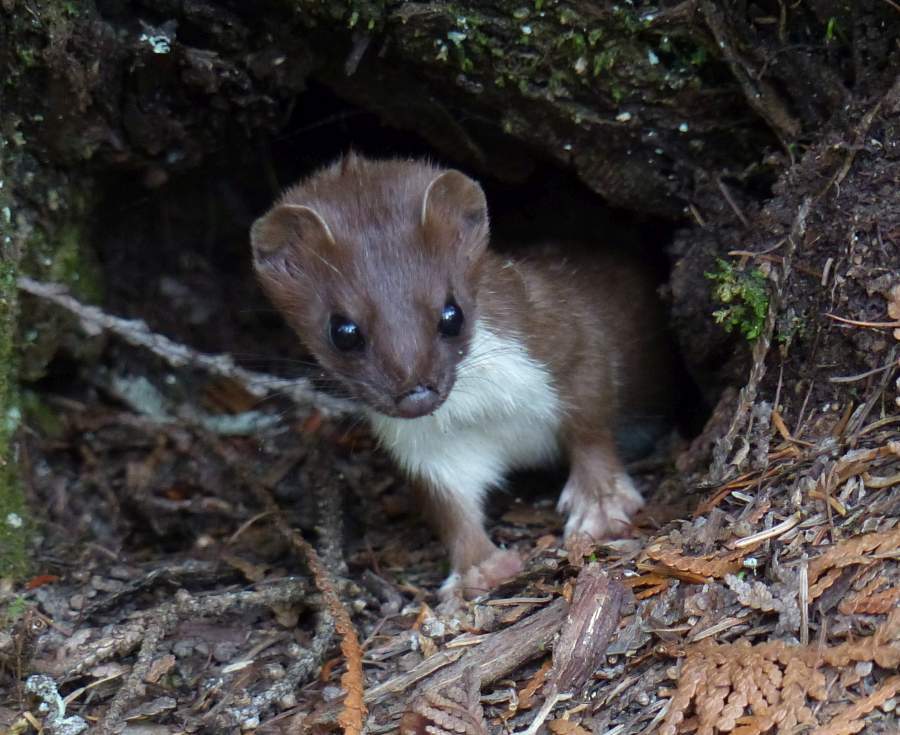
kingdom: Animalia
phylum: Chordata
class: Mammalia
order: Carnivora
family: Mustelidae
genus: Mustela
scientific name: Mustela erminea
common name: Stoat
